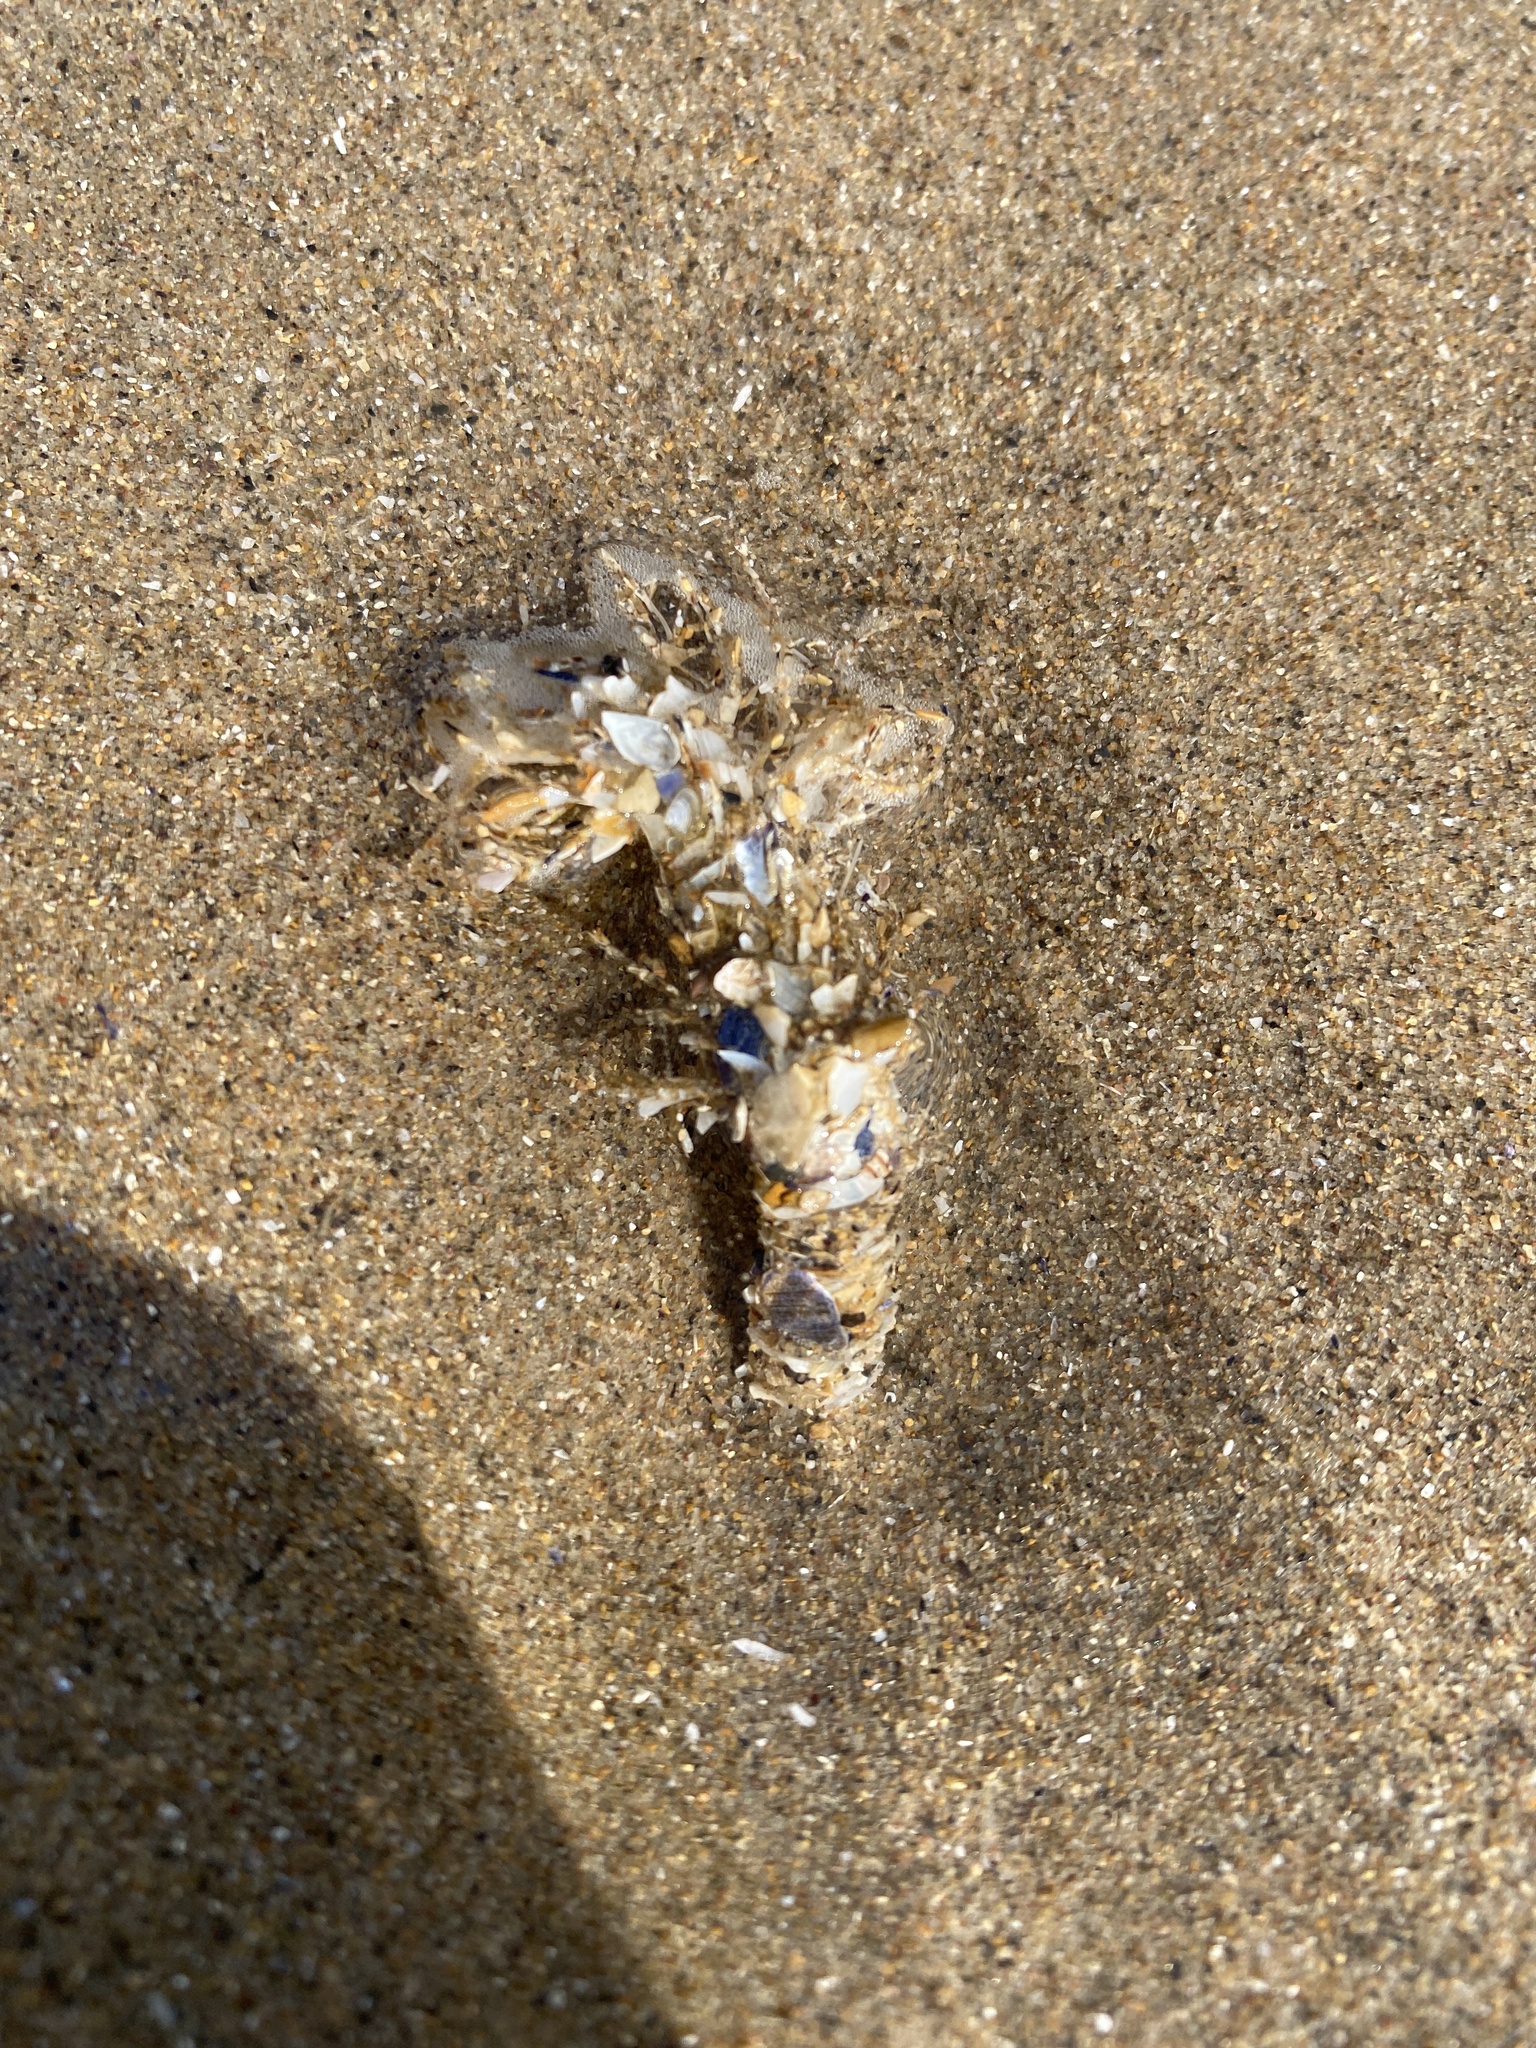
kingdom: Animalia
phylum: Annelida
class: Polychaeta
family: Terebellidae
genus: Lanice
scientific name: Lanice conchilega
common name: Sand mason
